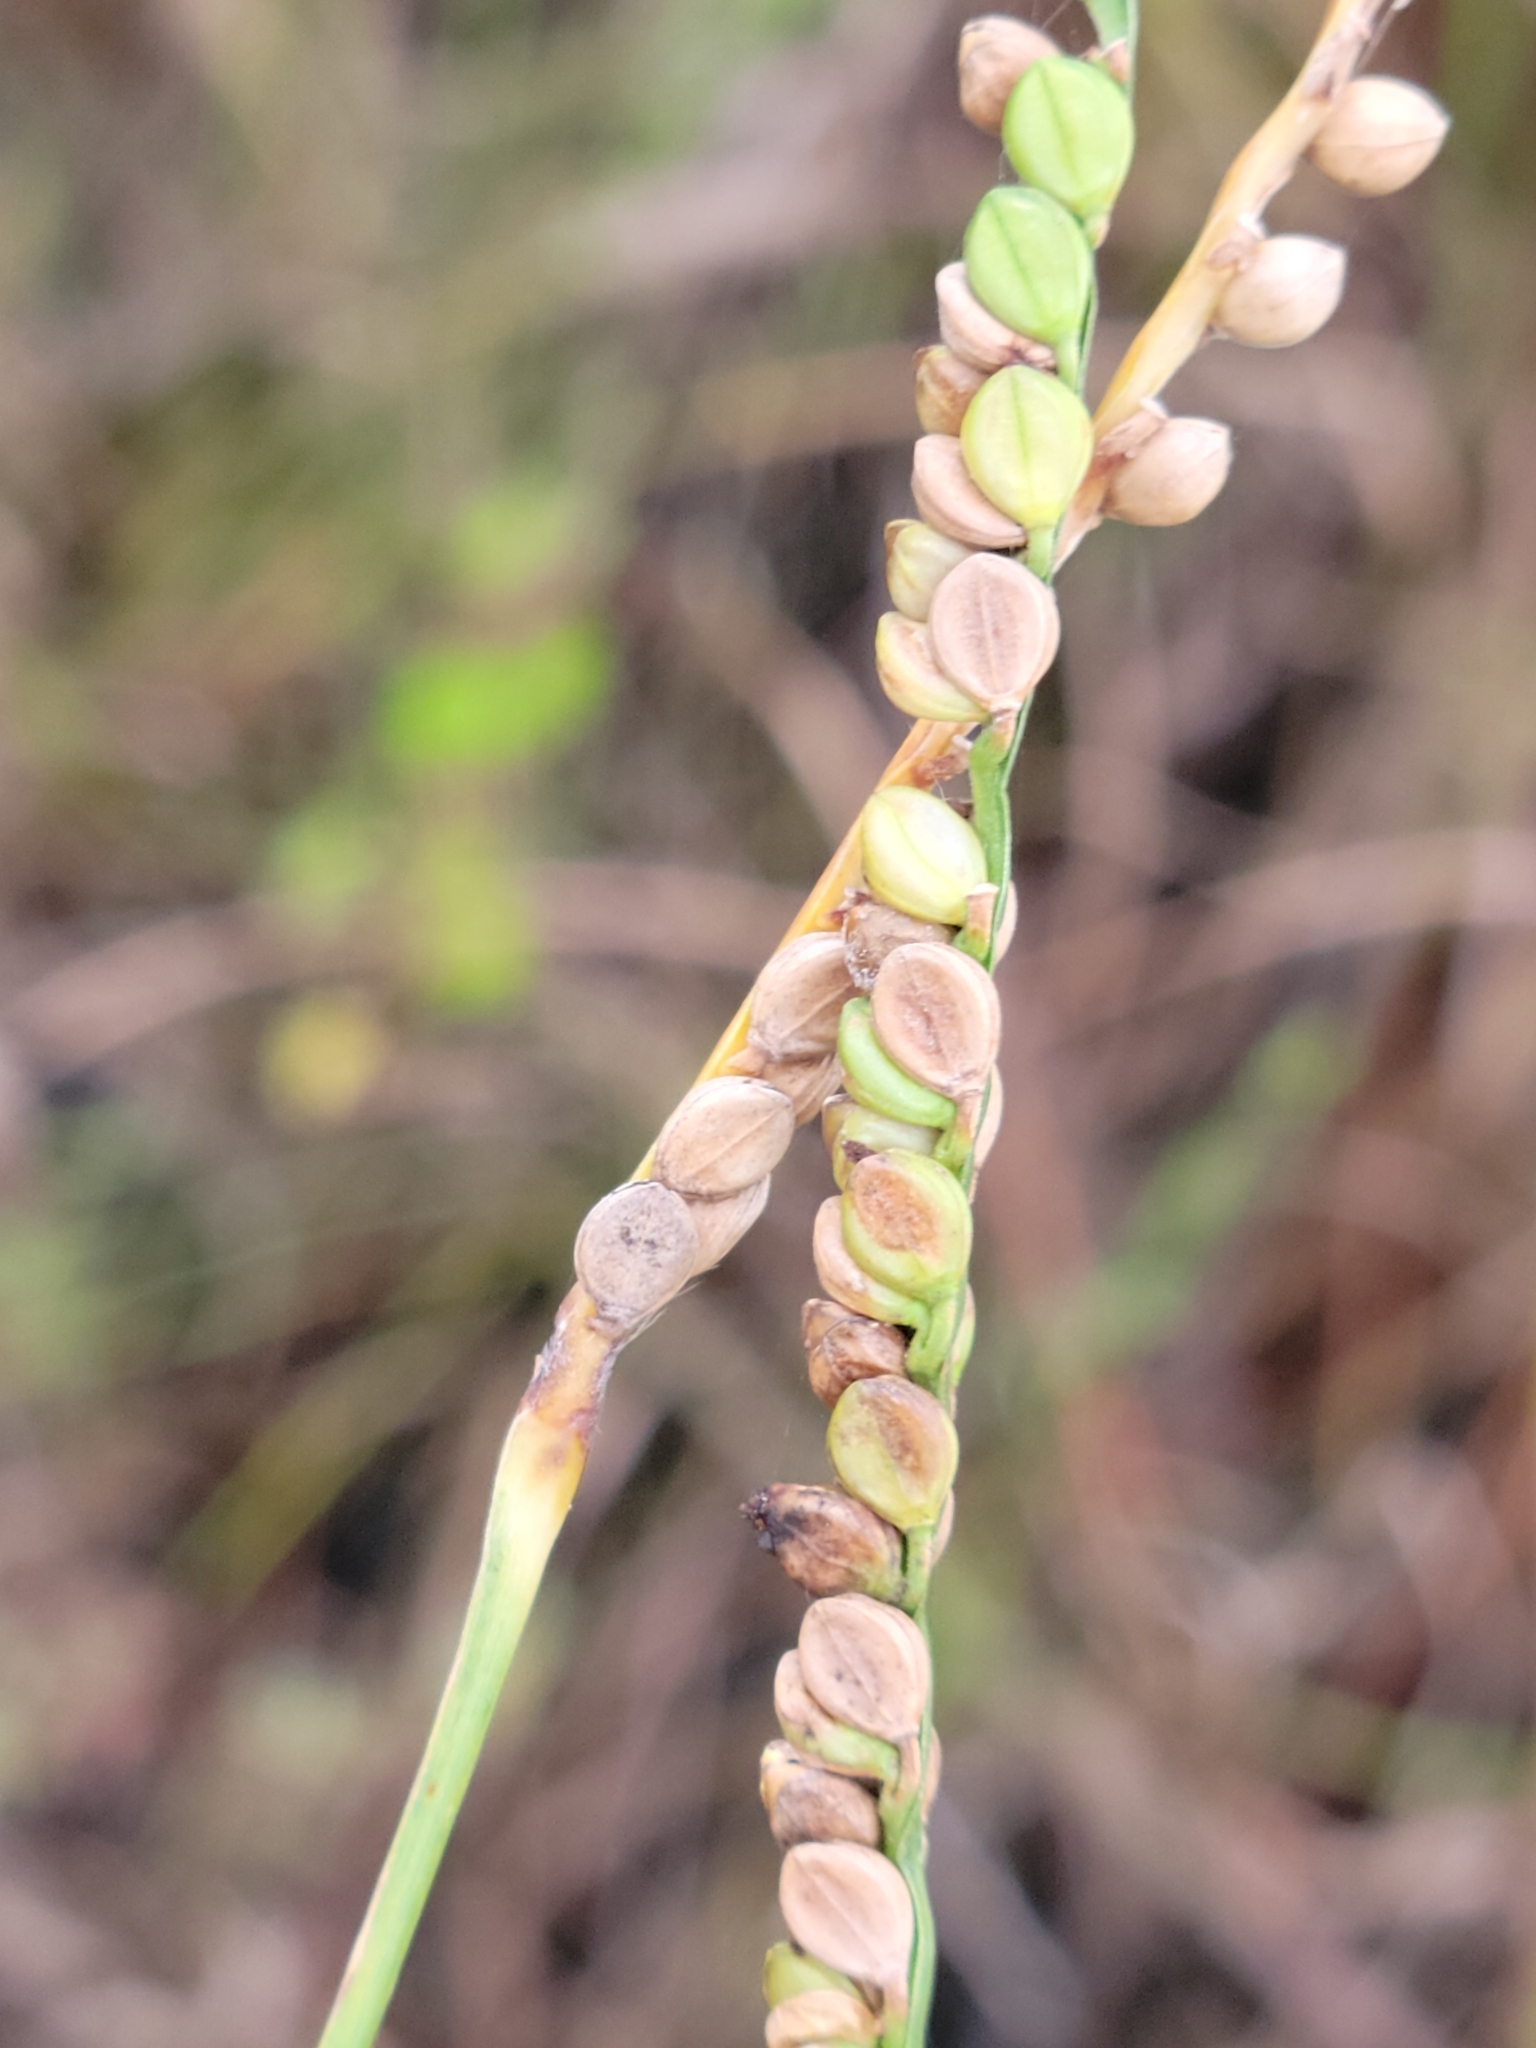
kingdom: Plantae
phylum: Tracheophyta
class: Liliopsida
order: Poales
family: Poaceae
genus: Paspalum
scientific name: Paspalum floridanum
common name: Florida paspalum
